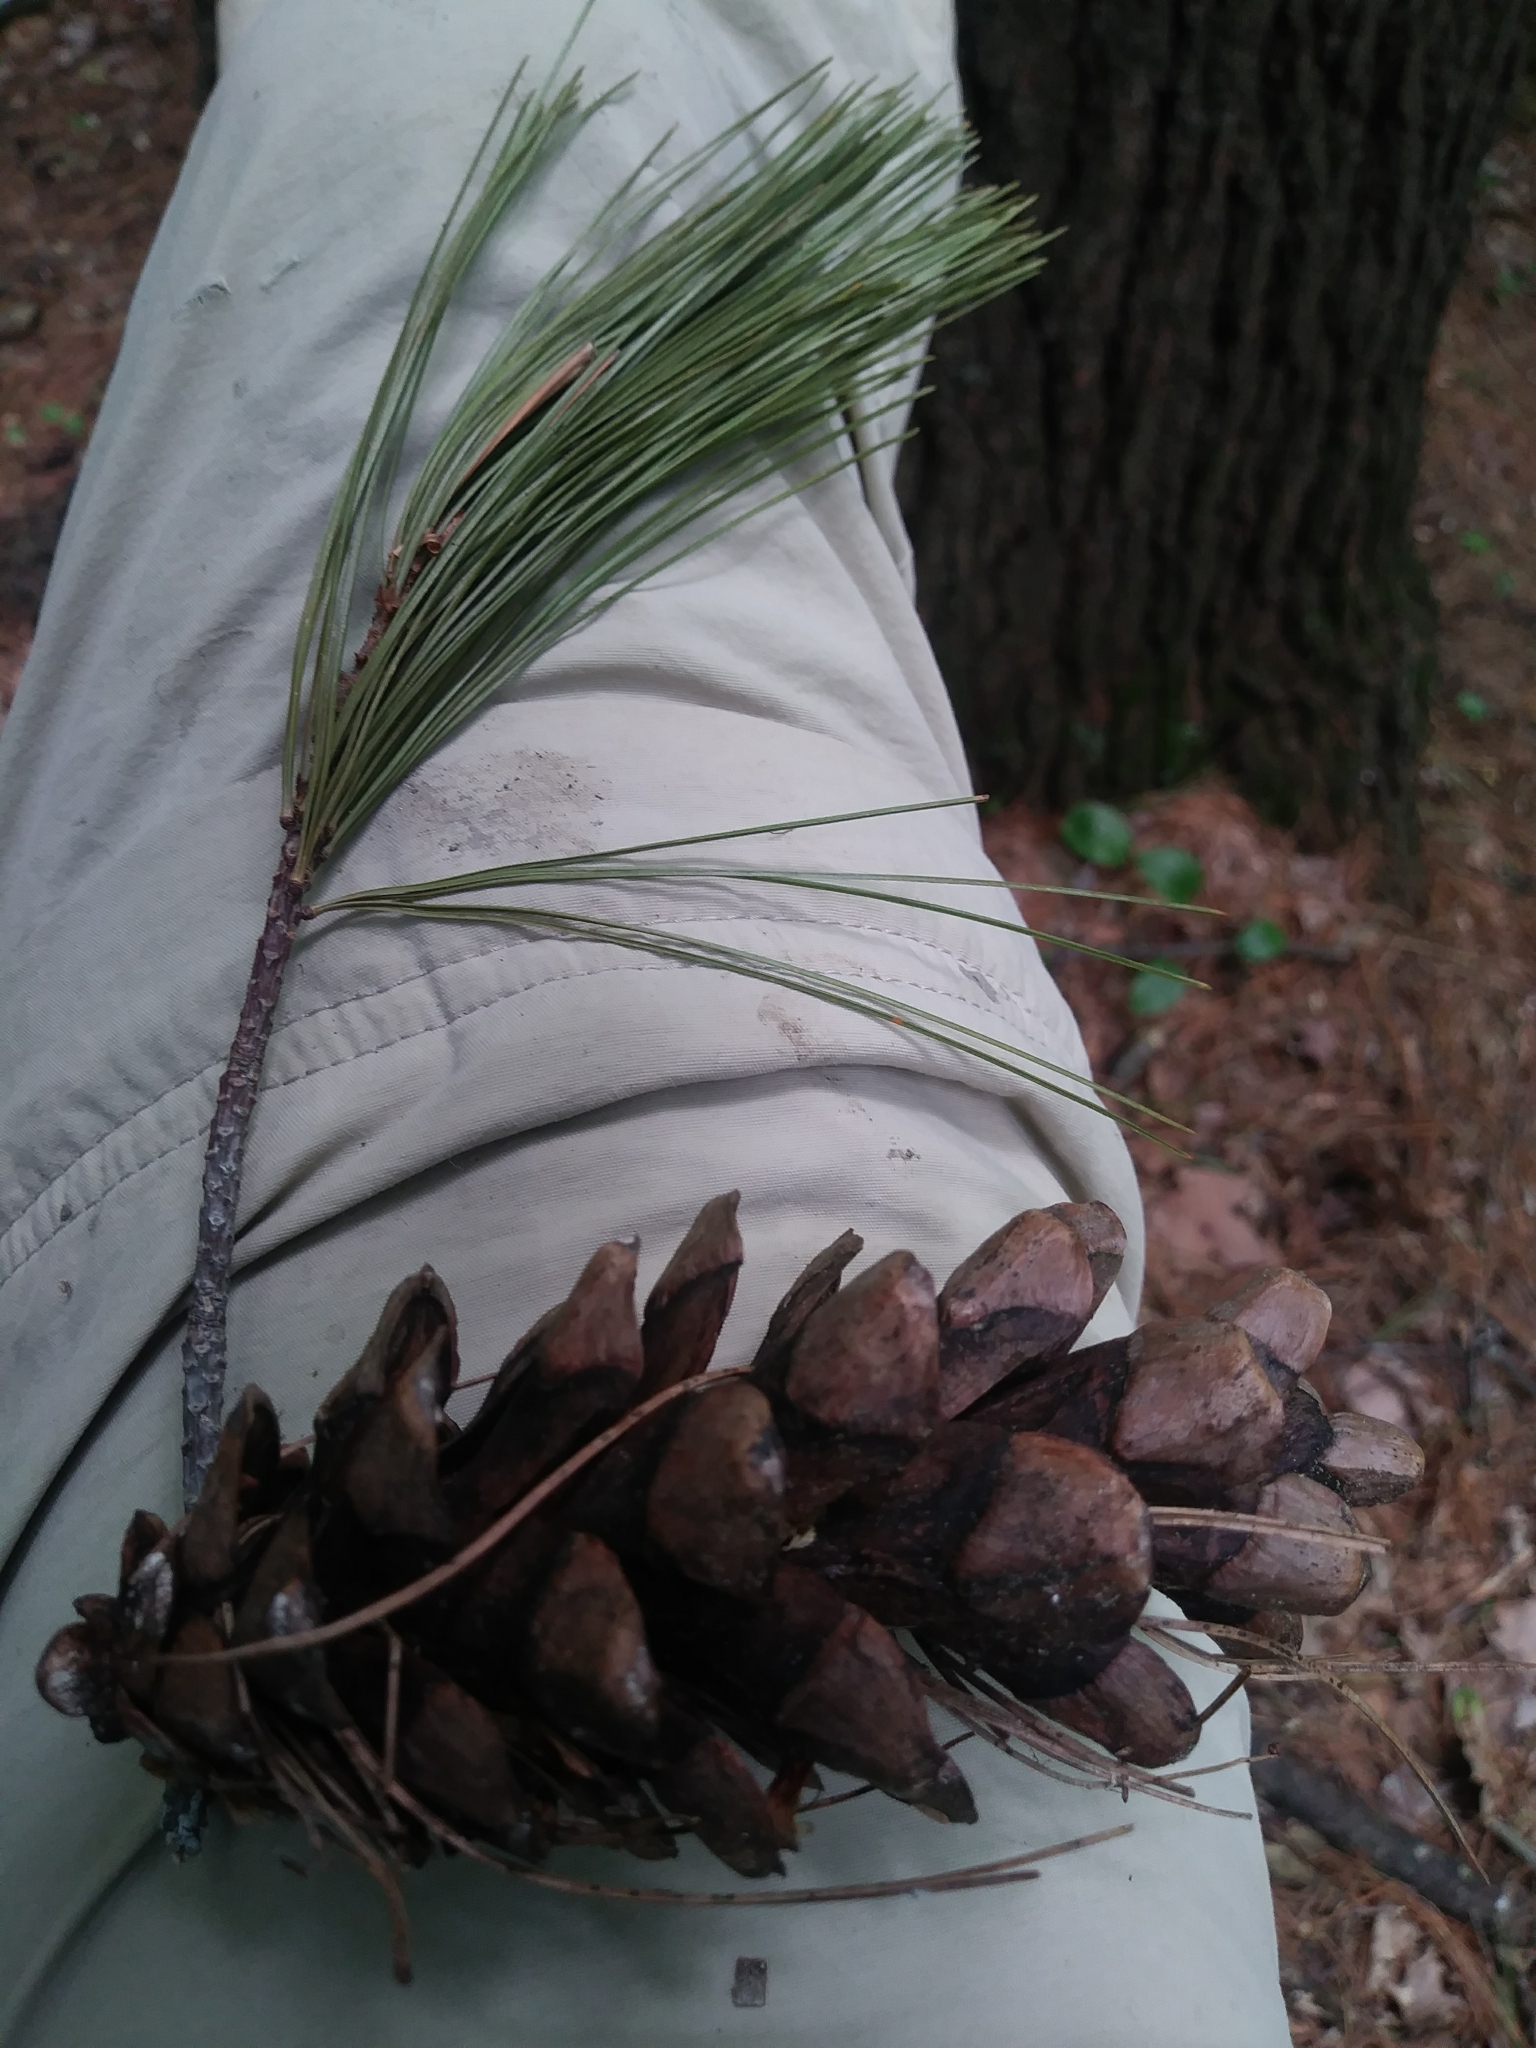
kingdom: Plantae
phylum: Tracheophyta
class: Pinopsida
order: Pinales
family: Pinaceae
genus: Pinus
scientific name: Pinus strobus
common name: Weymouth pine
